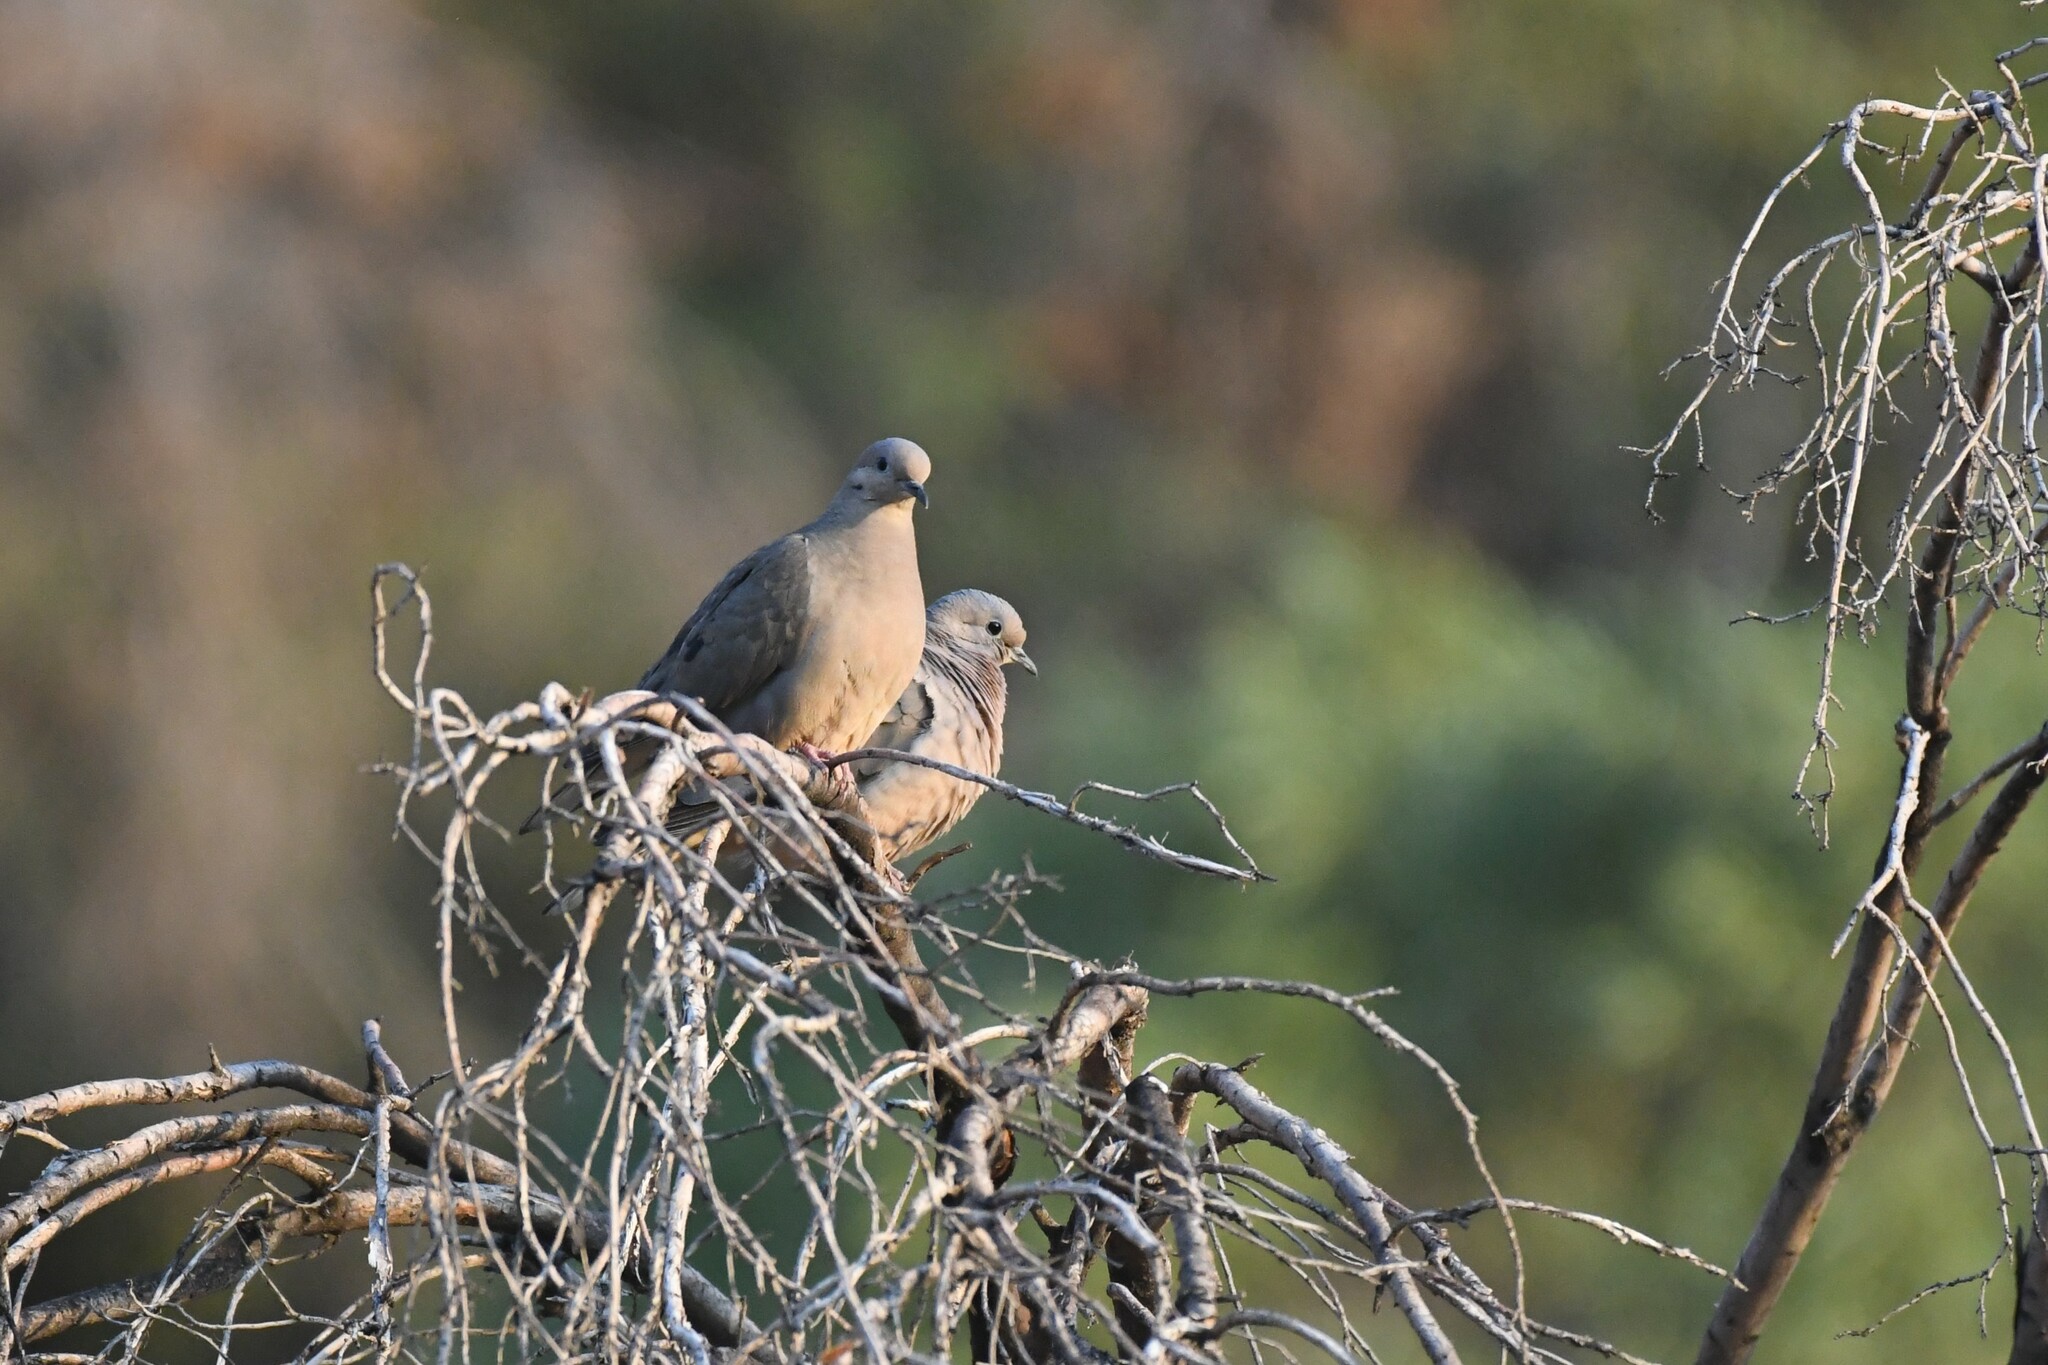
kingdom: Animalia
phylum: Chordata
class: Aves
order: Columbiformes
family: Columbidae
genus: Zenaida
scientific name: Zenaida auriculata
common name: Eared dove
